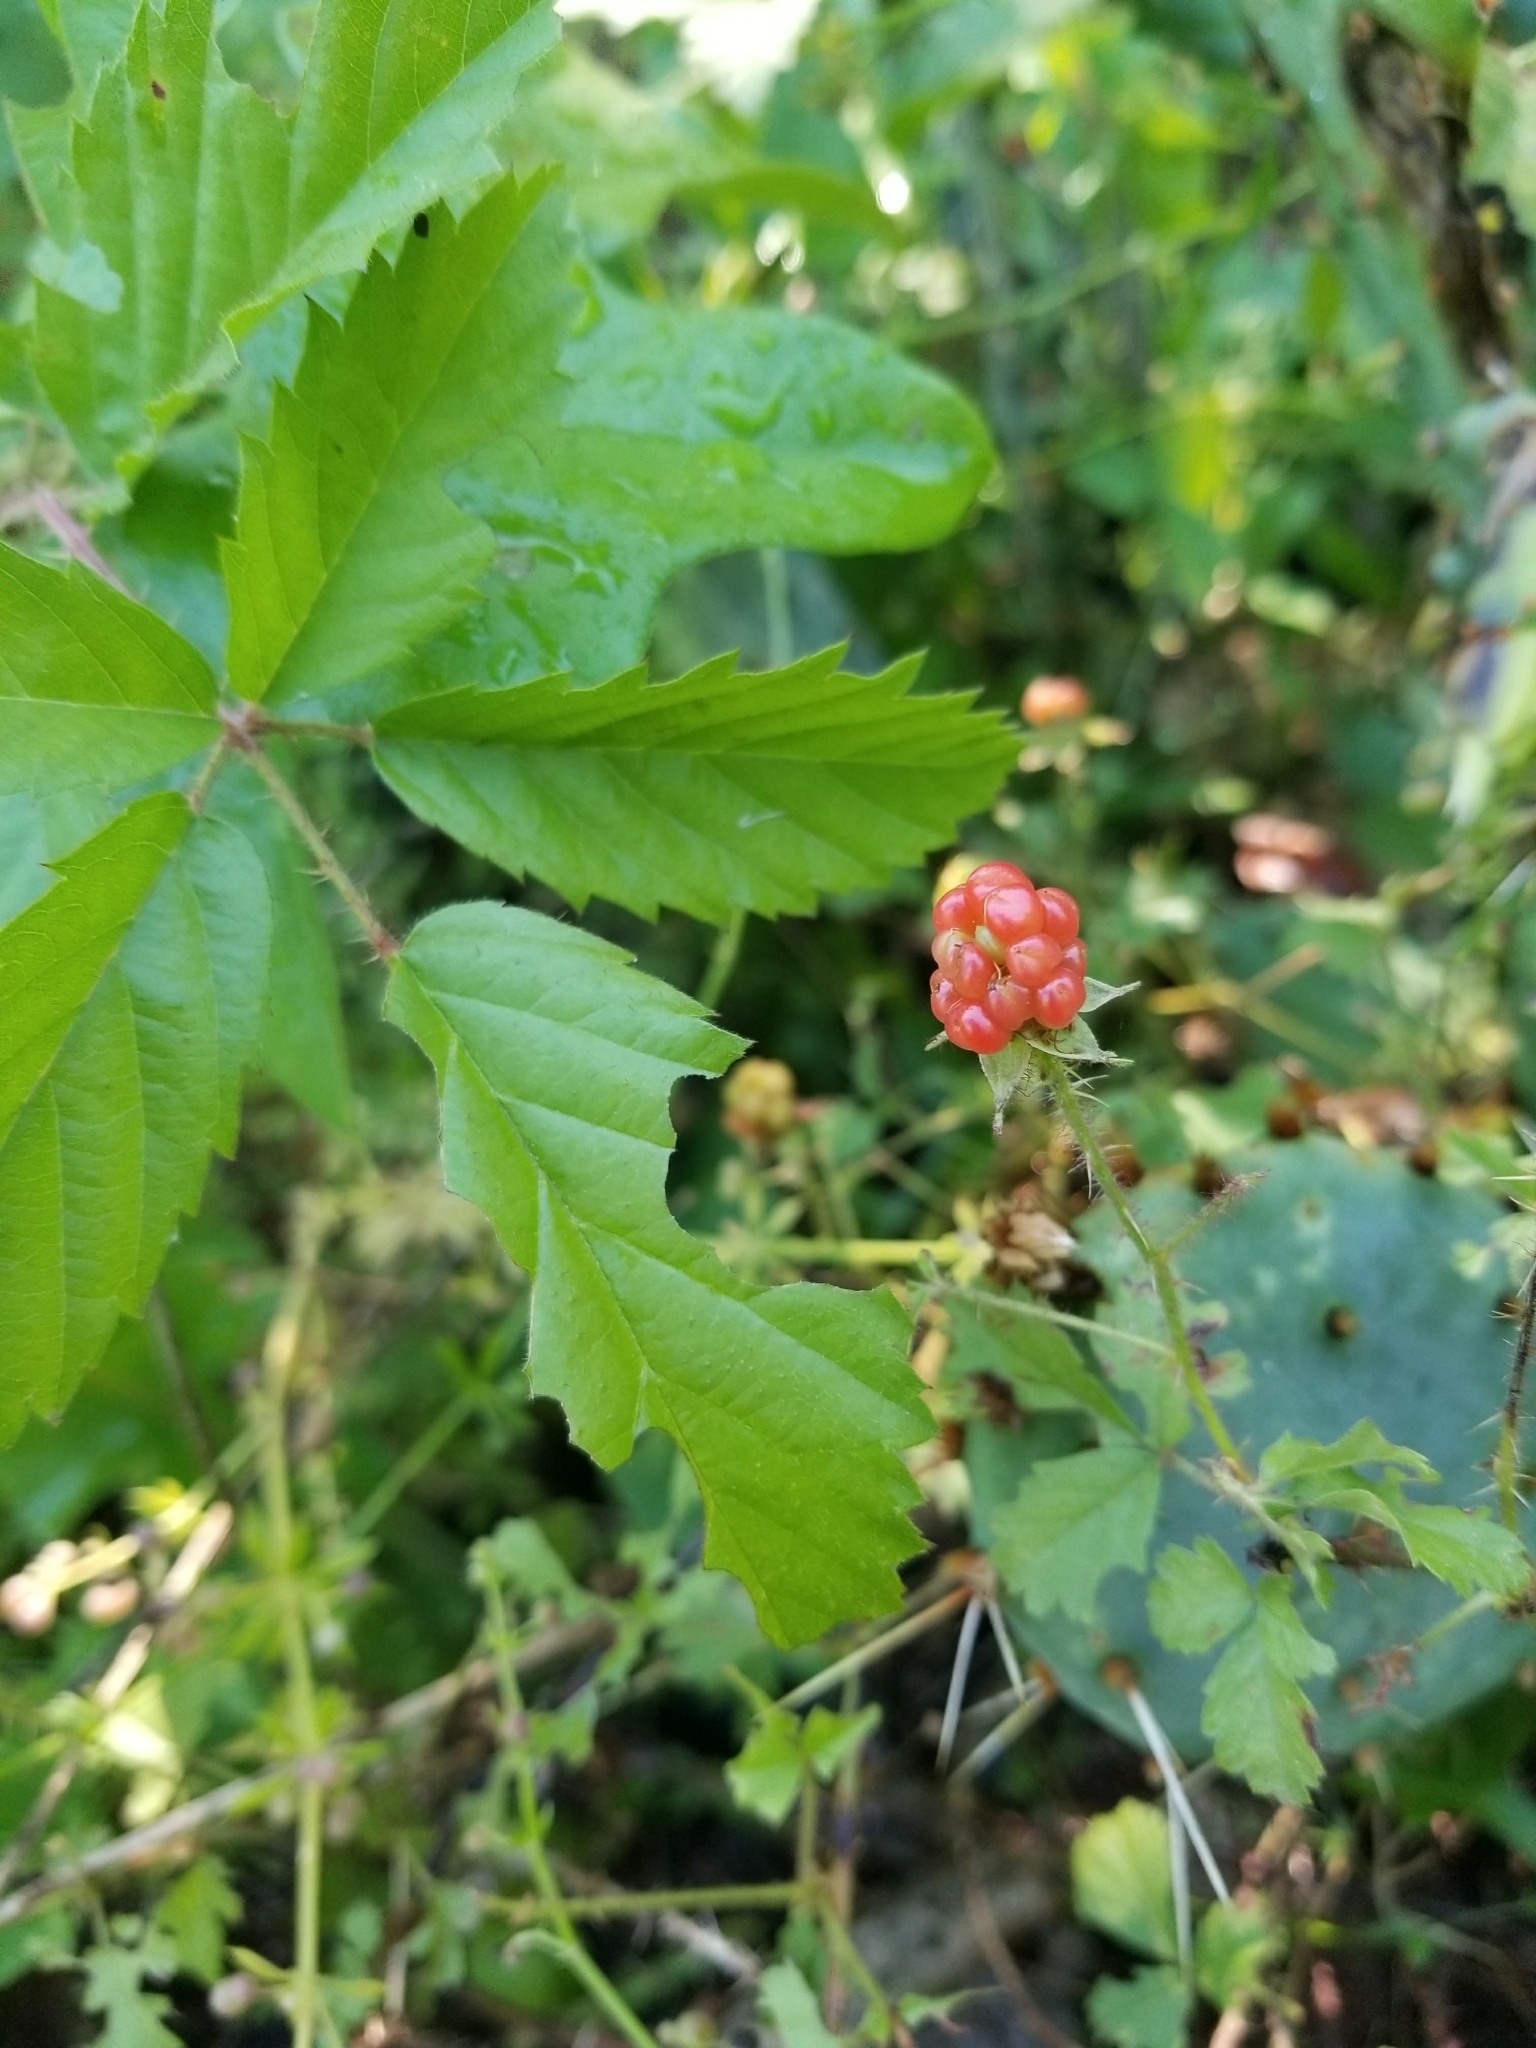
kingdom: Plantae
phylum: Tracheophyta
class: Magnoliopsida
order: Rosales
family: Rosaceae
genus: Rubus
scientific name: Rubus trivialis
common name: Southern dewberry
